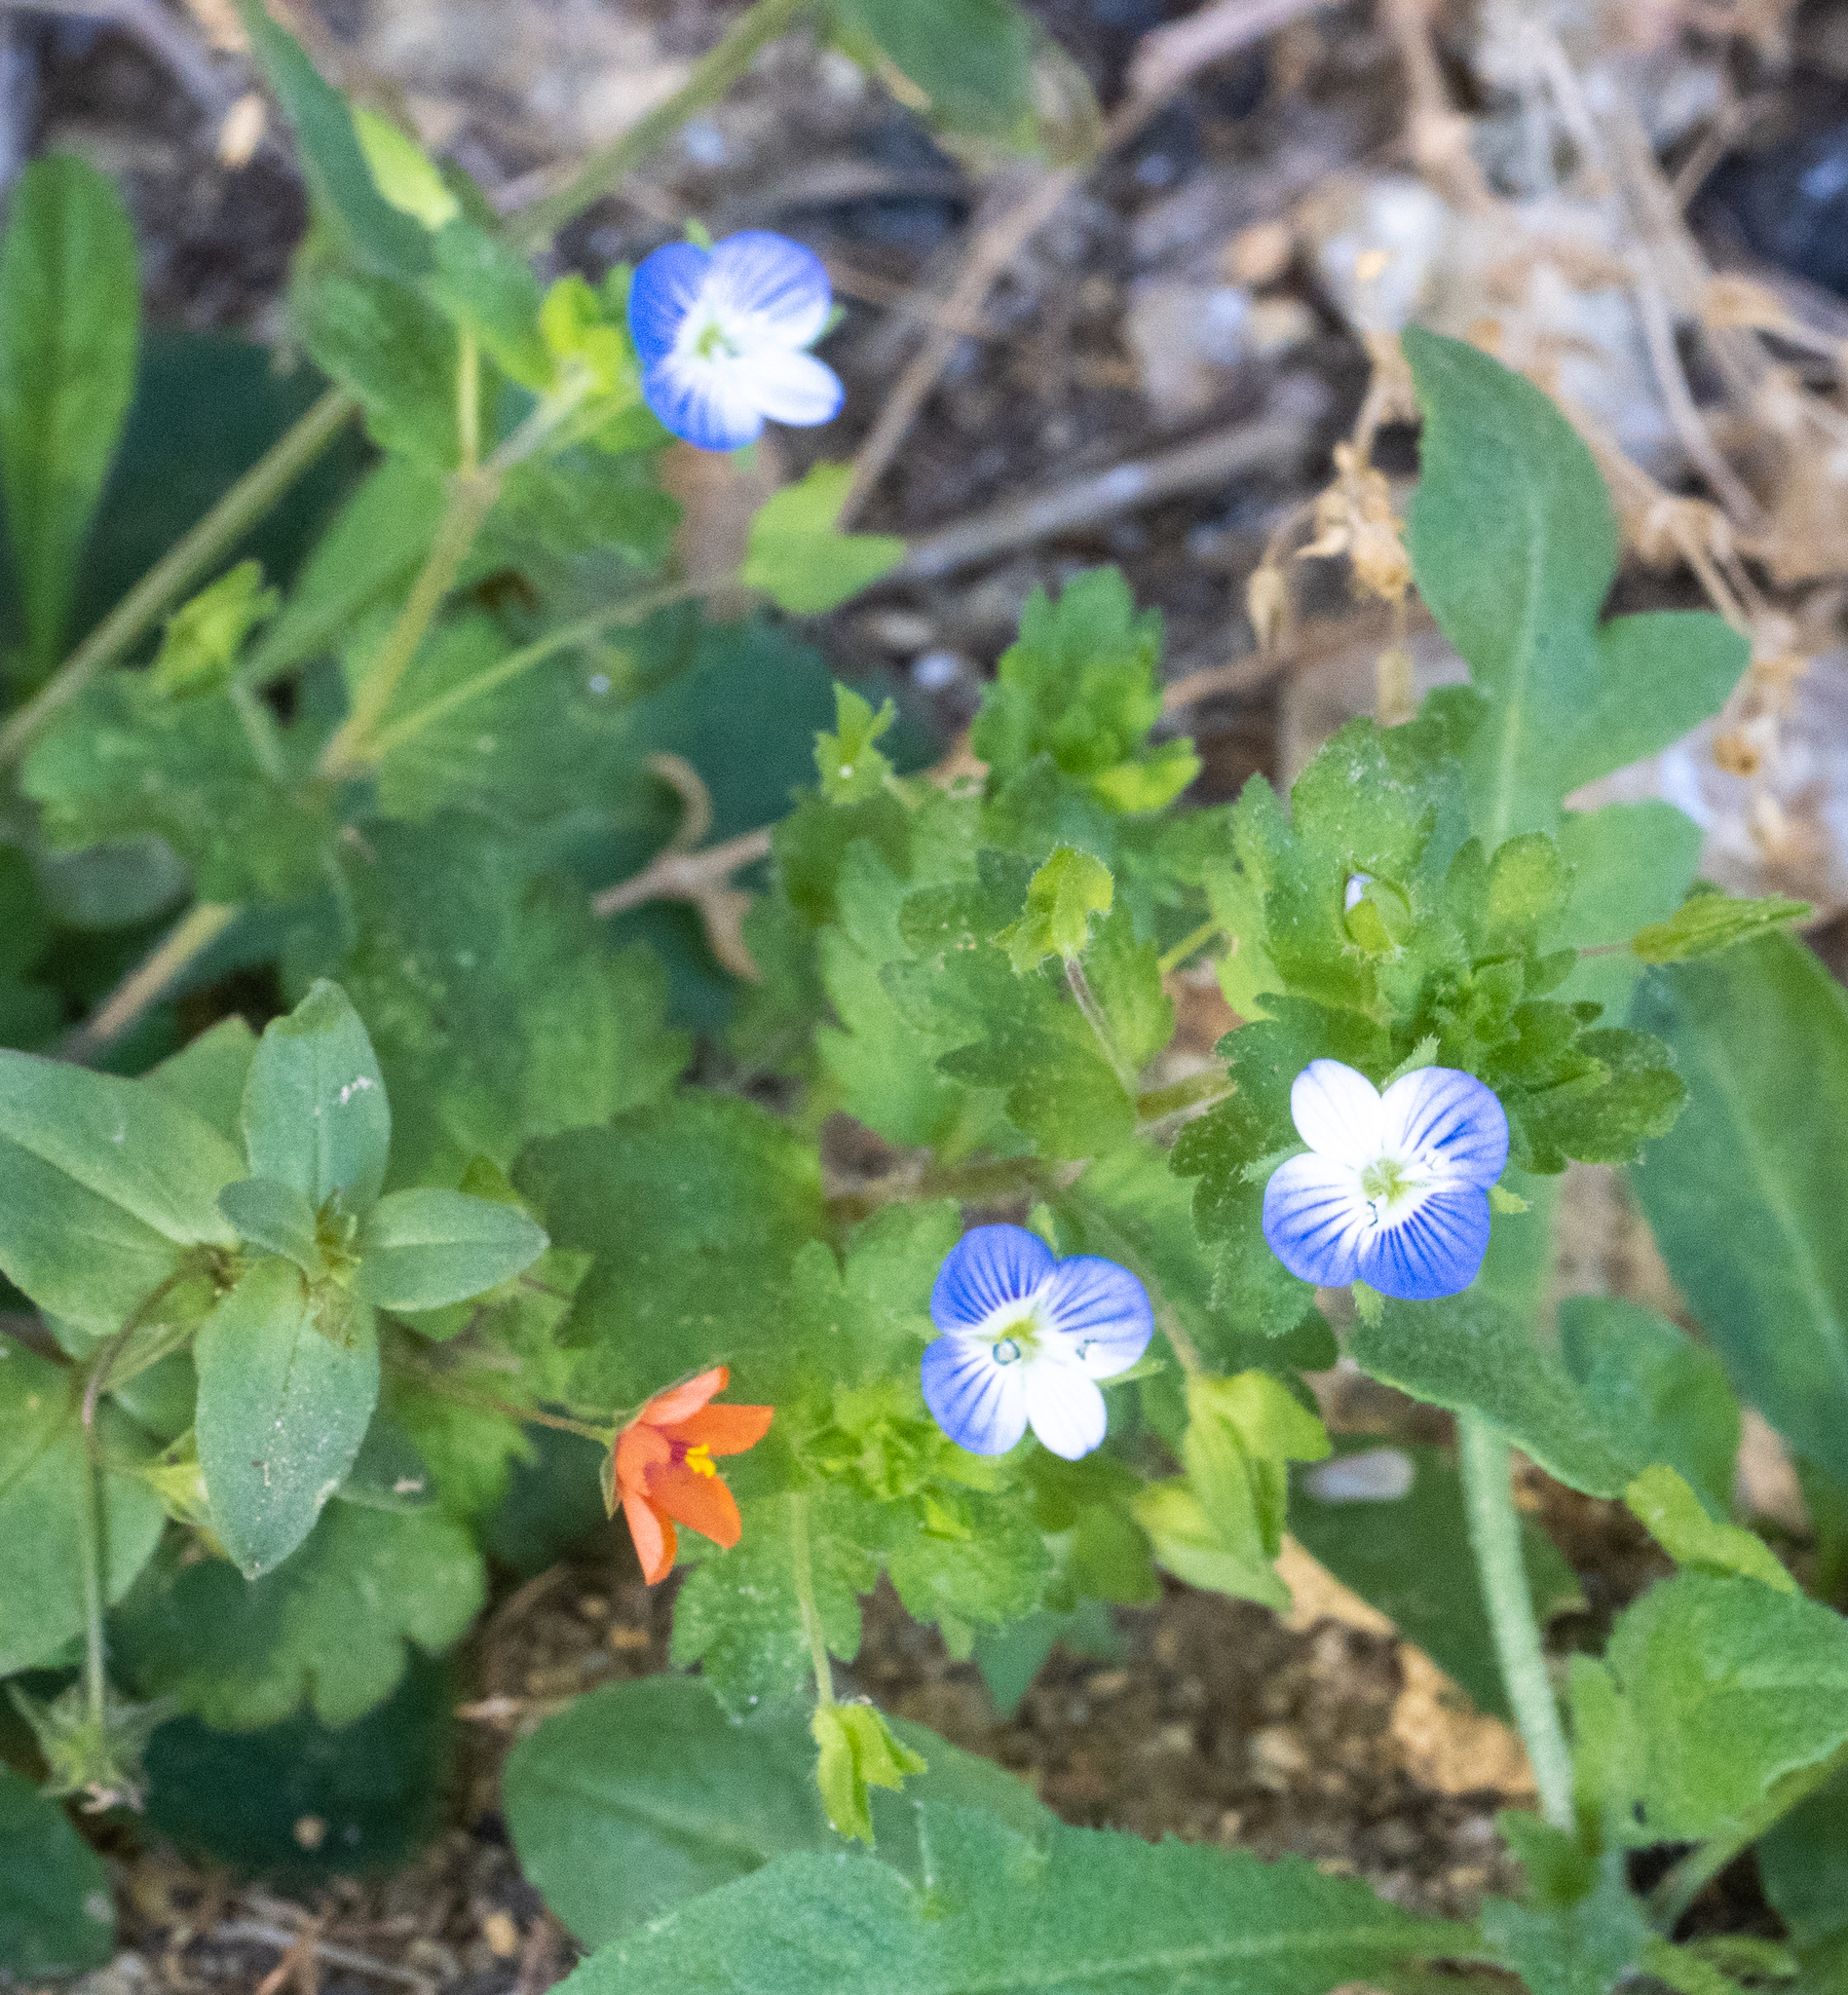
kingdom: Plantae
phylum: Tracheophyta
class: Magnoliopsida
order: Lamiales
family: Plantaginaceae
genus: Veronica
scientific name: Veronica persica
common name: Common field-speedwell
